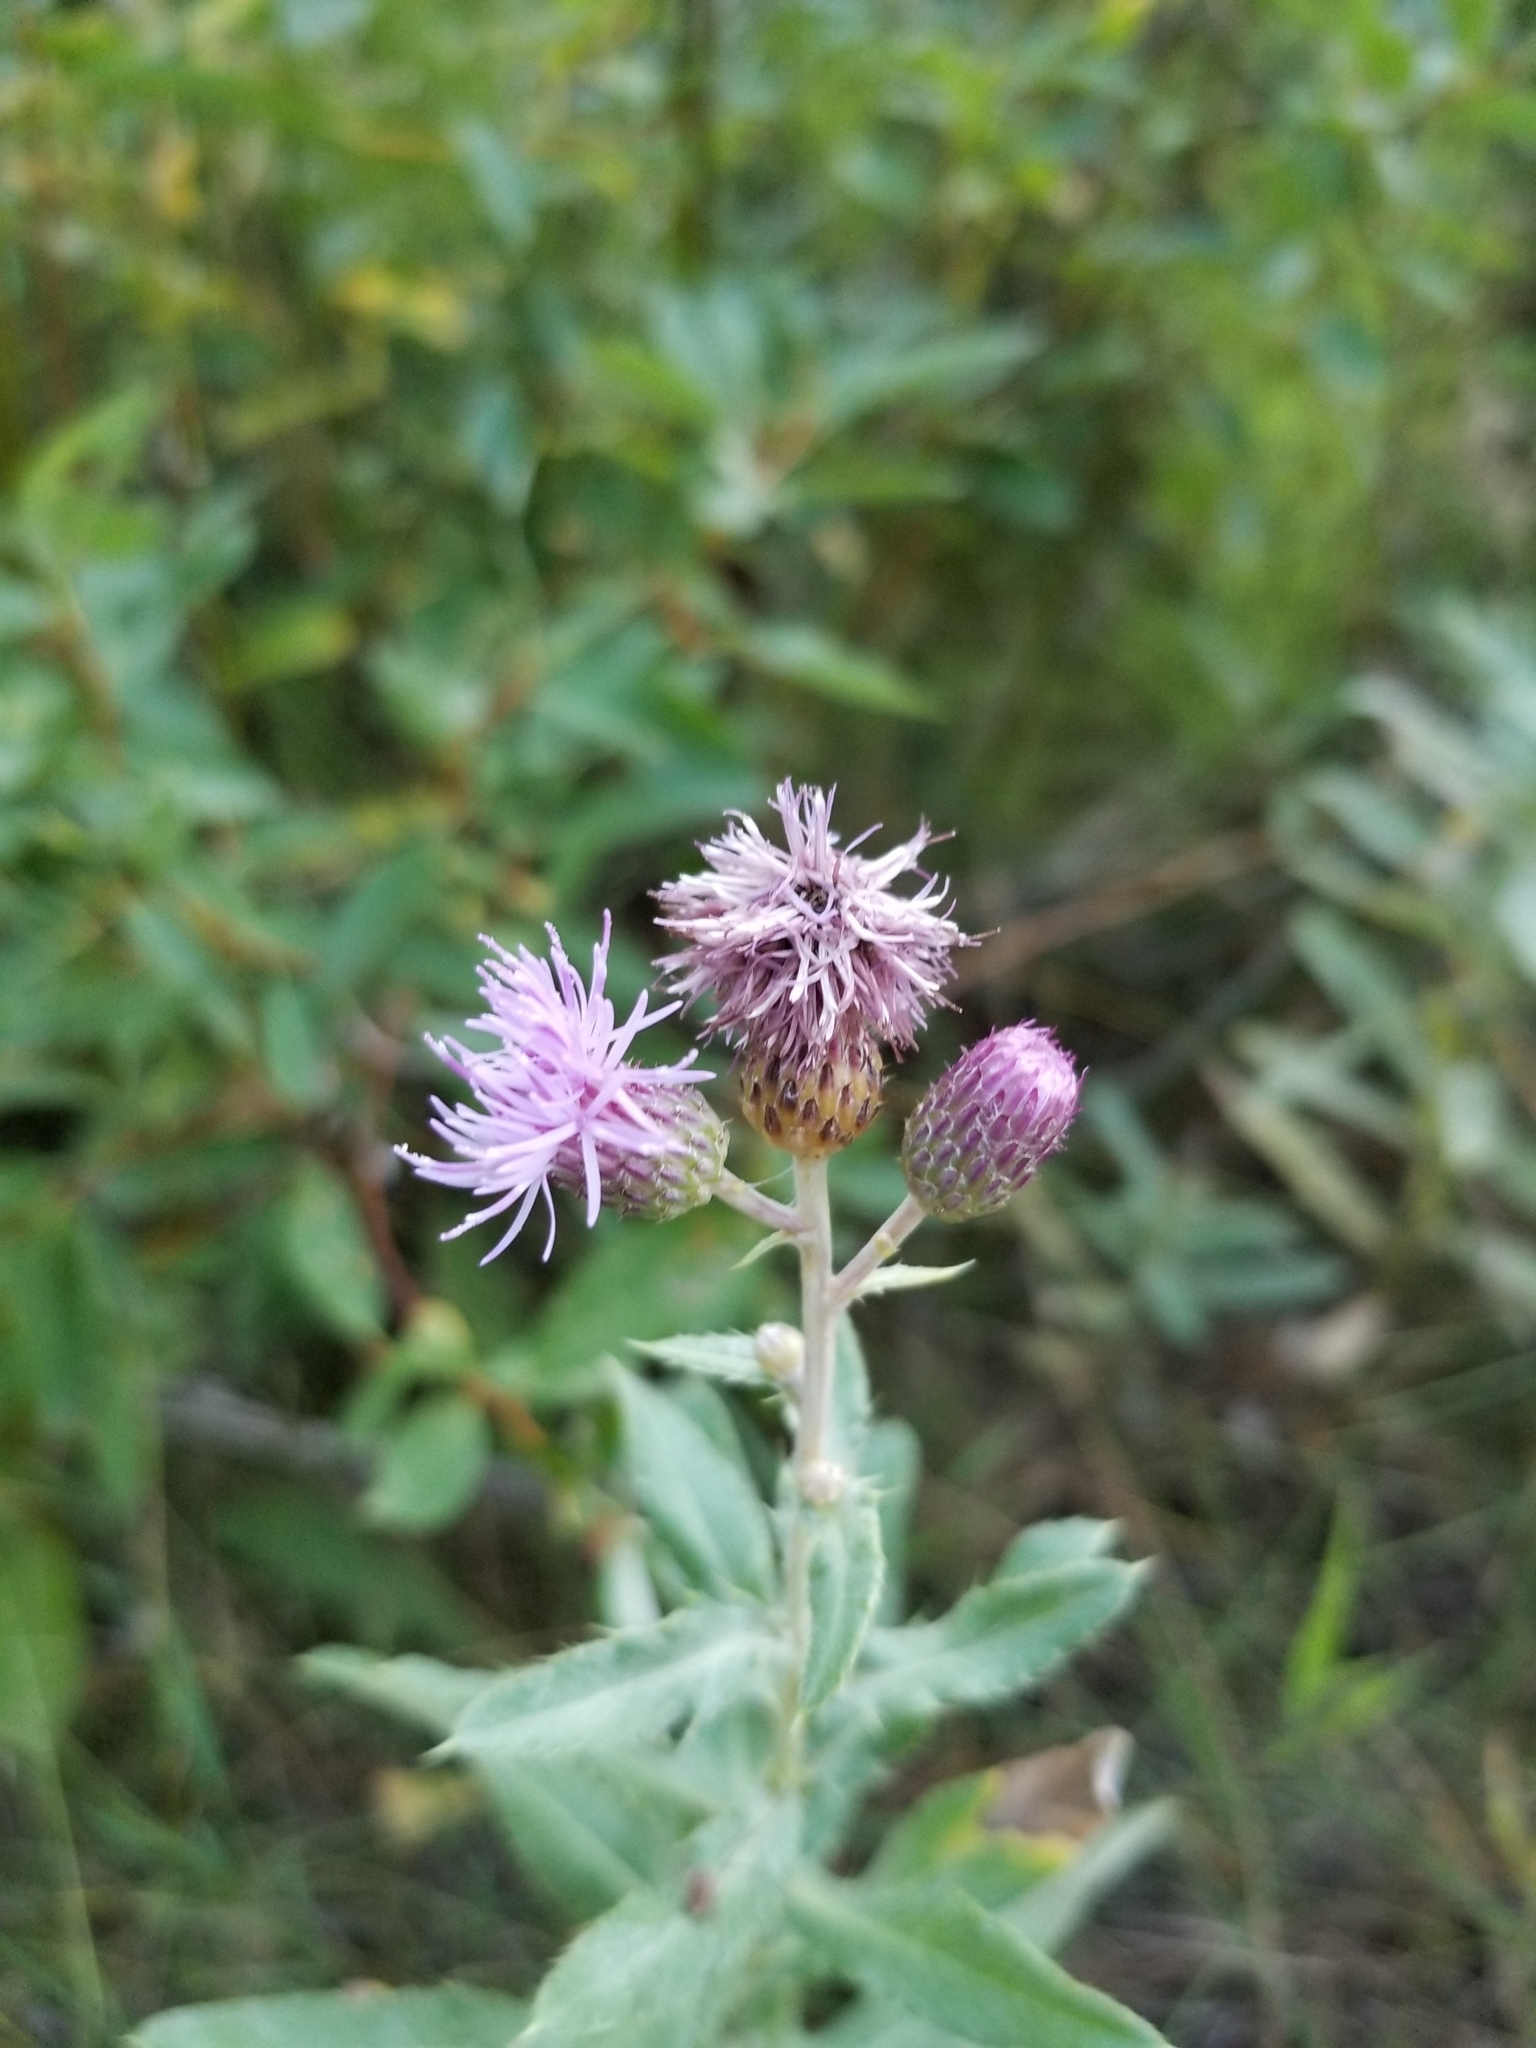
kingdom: Plantae
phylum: Tracheophyta
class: Magnoliopsida
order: Asterales
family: Asteraceae
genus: Cirsium
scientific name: Cirsium arvense
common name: Creeping thistle
